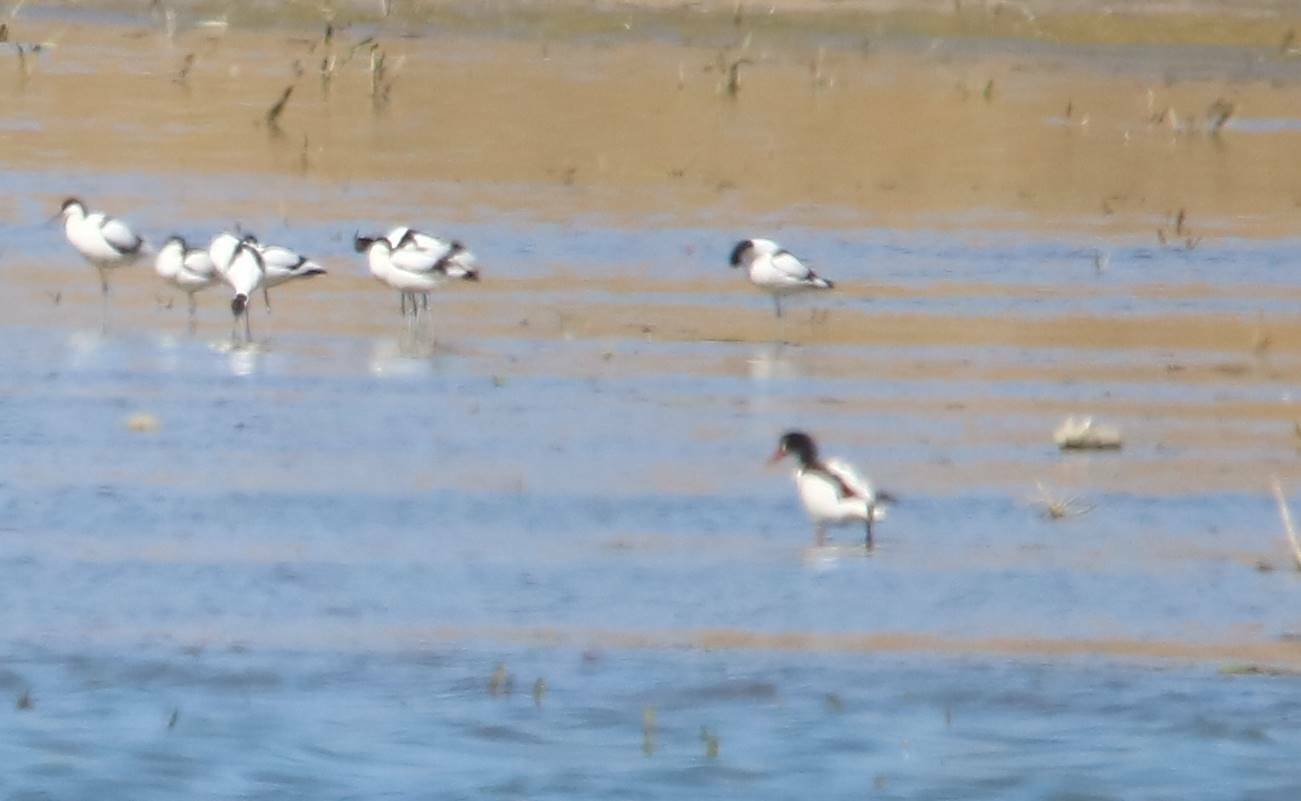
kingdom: Animalia
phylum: Chordata
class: Aves
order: Anseriformes
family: Anatidae
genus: Tadorna
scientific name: Tadorna tadorna
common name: Common shelduck
